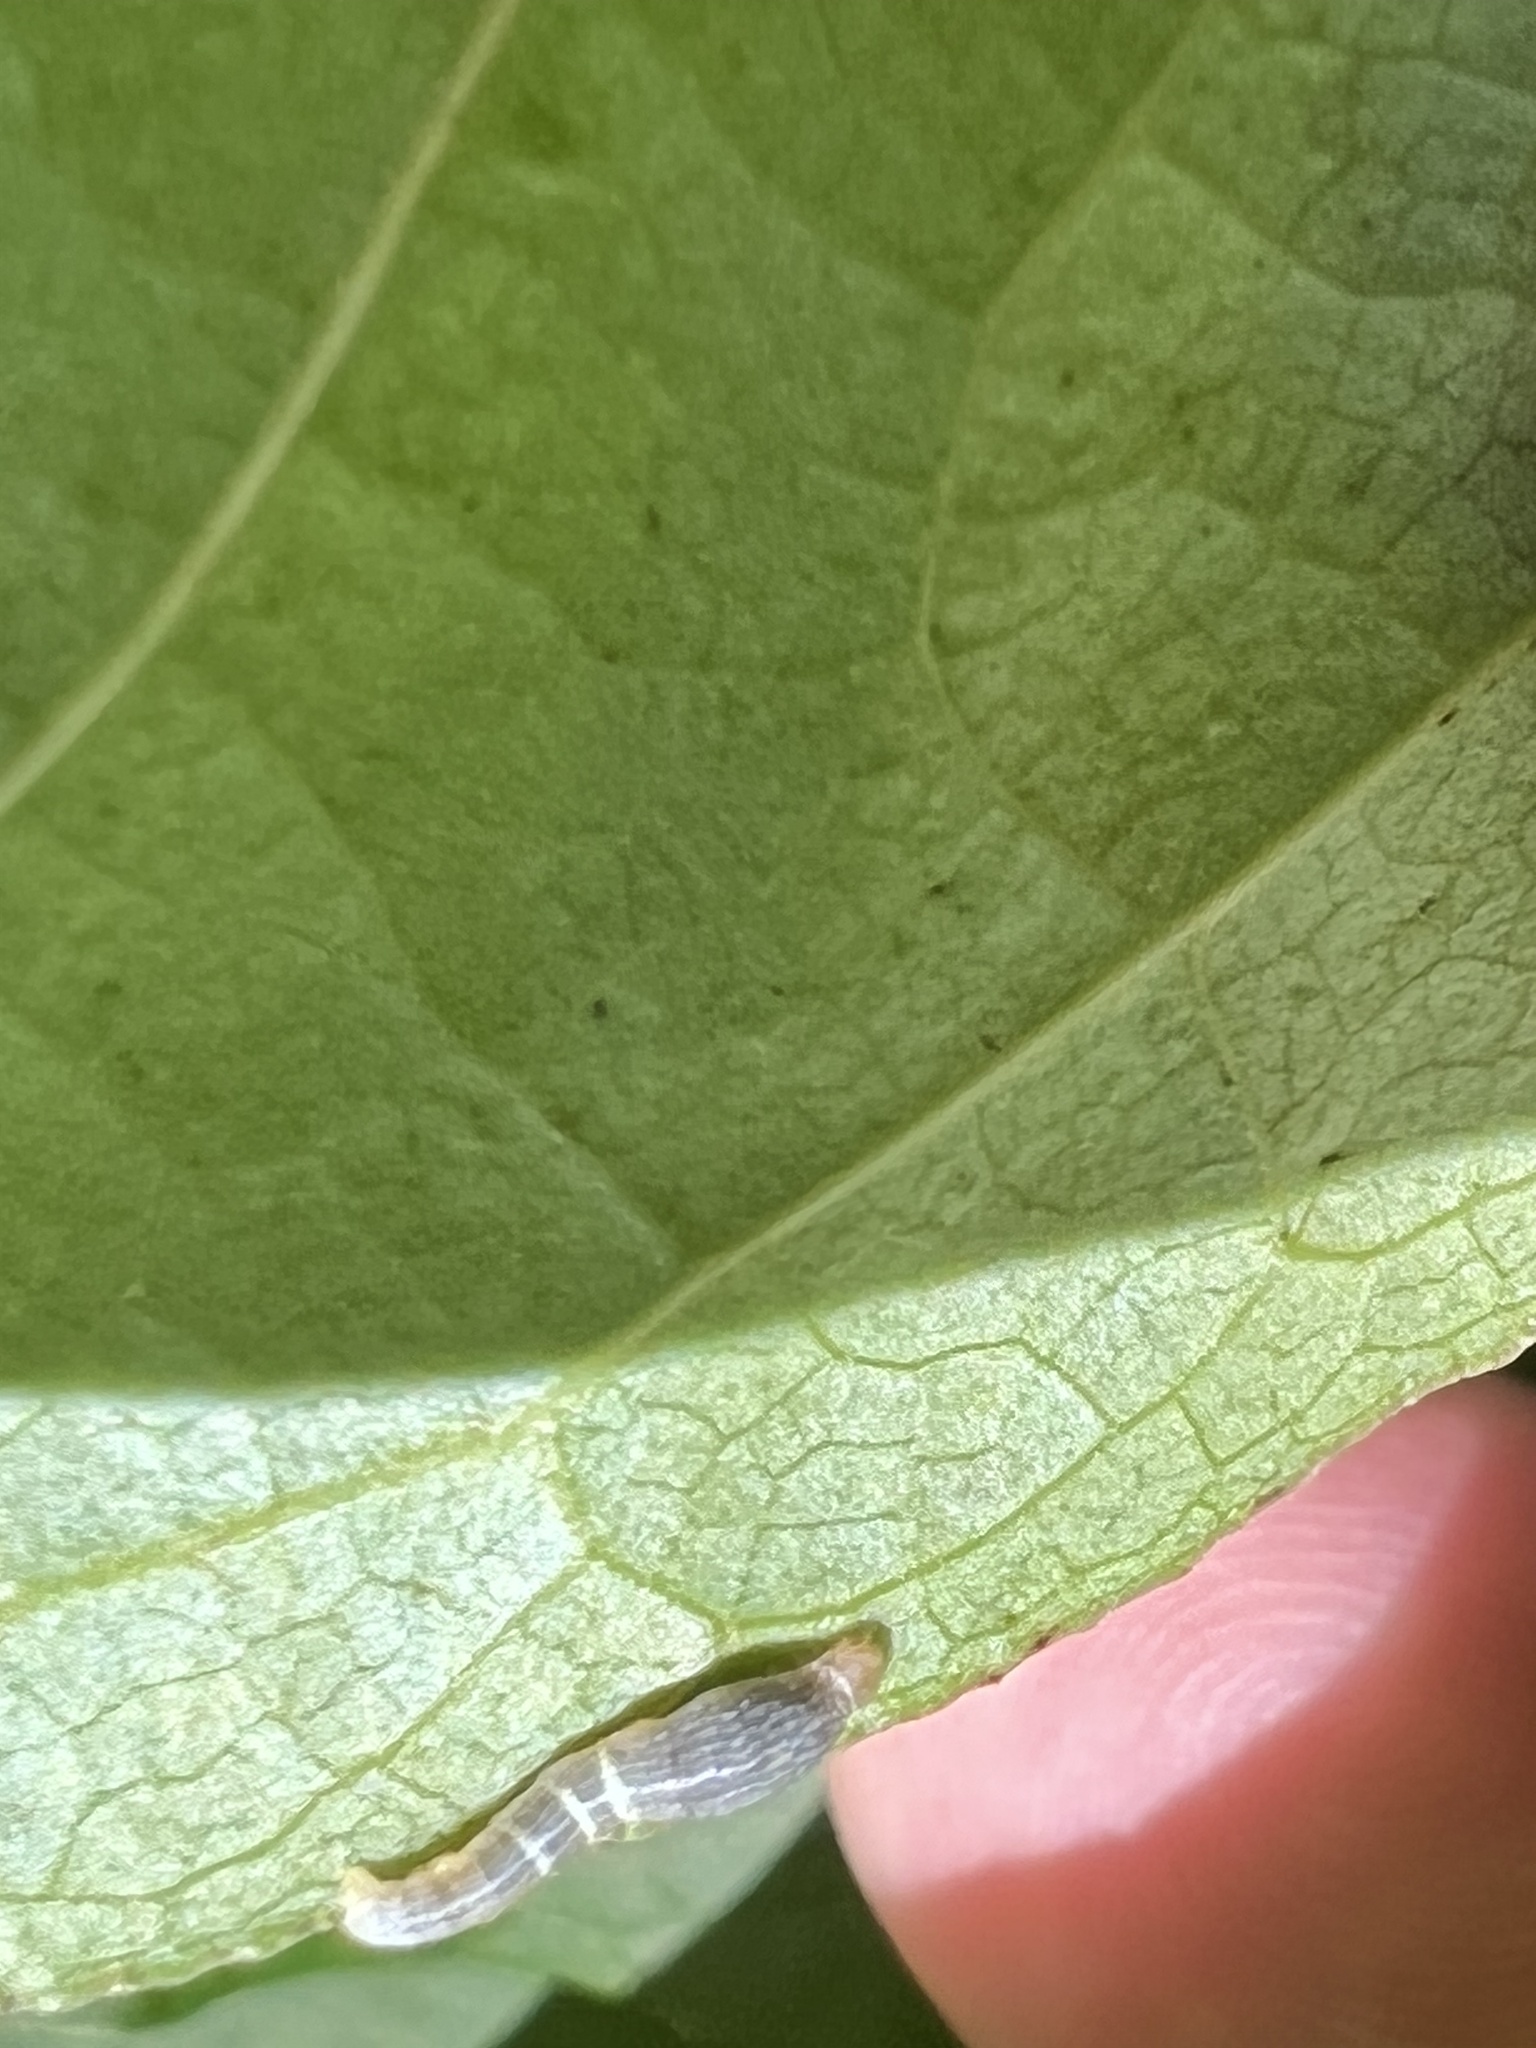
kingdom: Animalia
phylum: Arthropoda
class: Insecta
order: Lepidoptera
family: Geometridae
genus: Epimecis
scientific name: Epimecis hortaria
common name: Tulip-tree beauty
